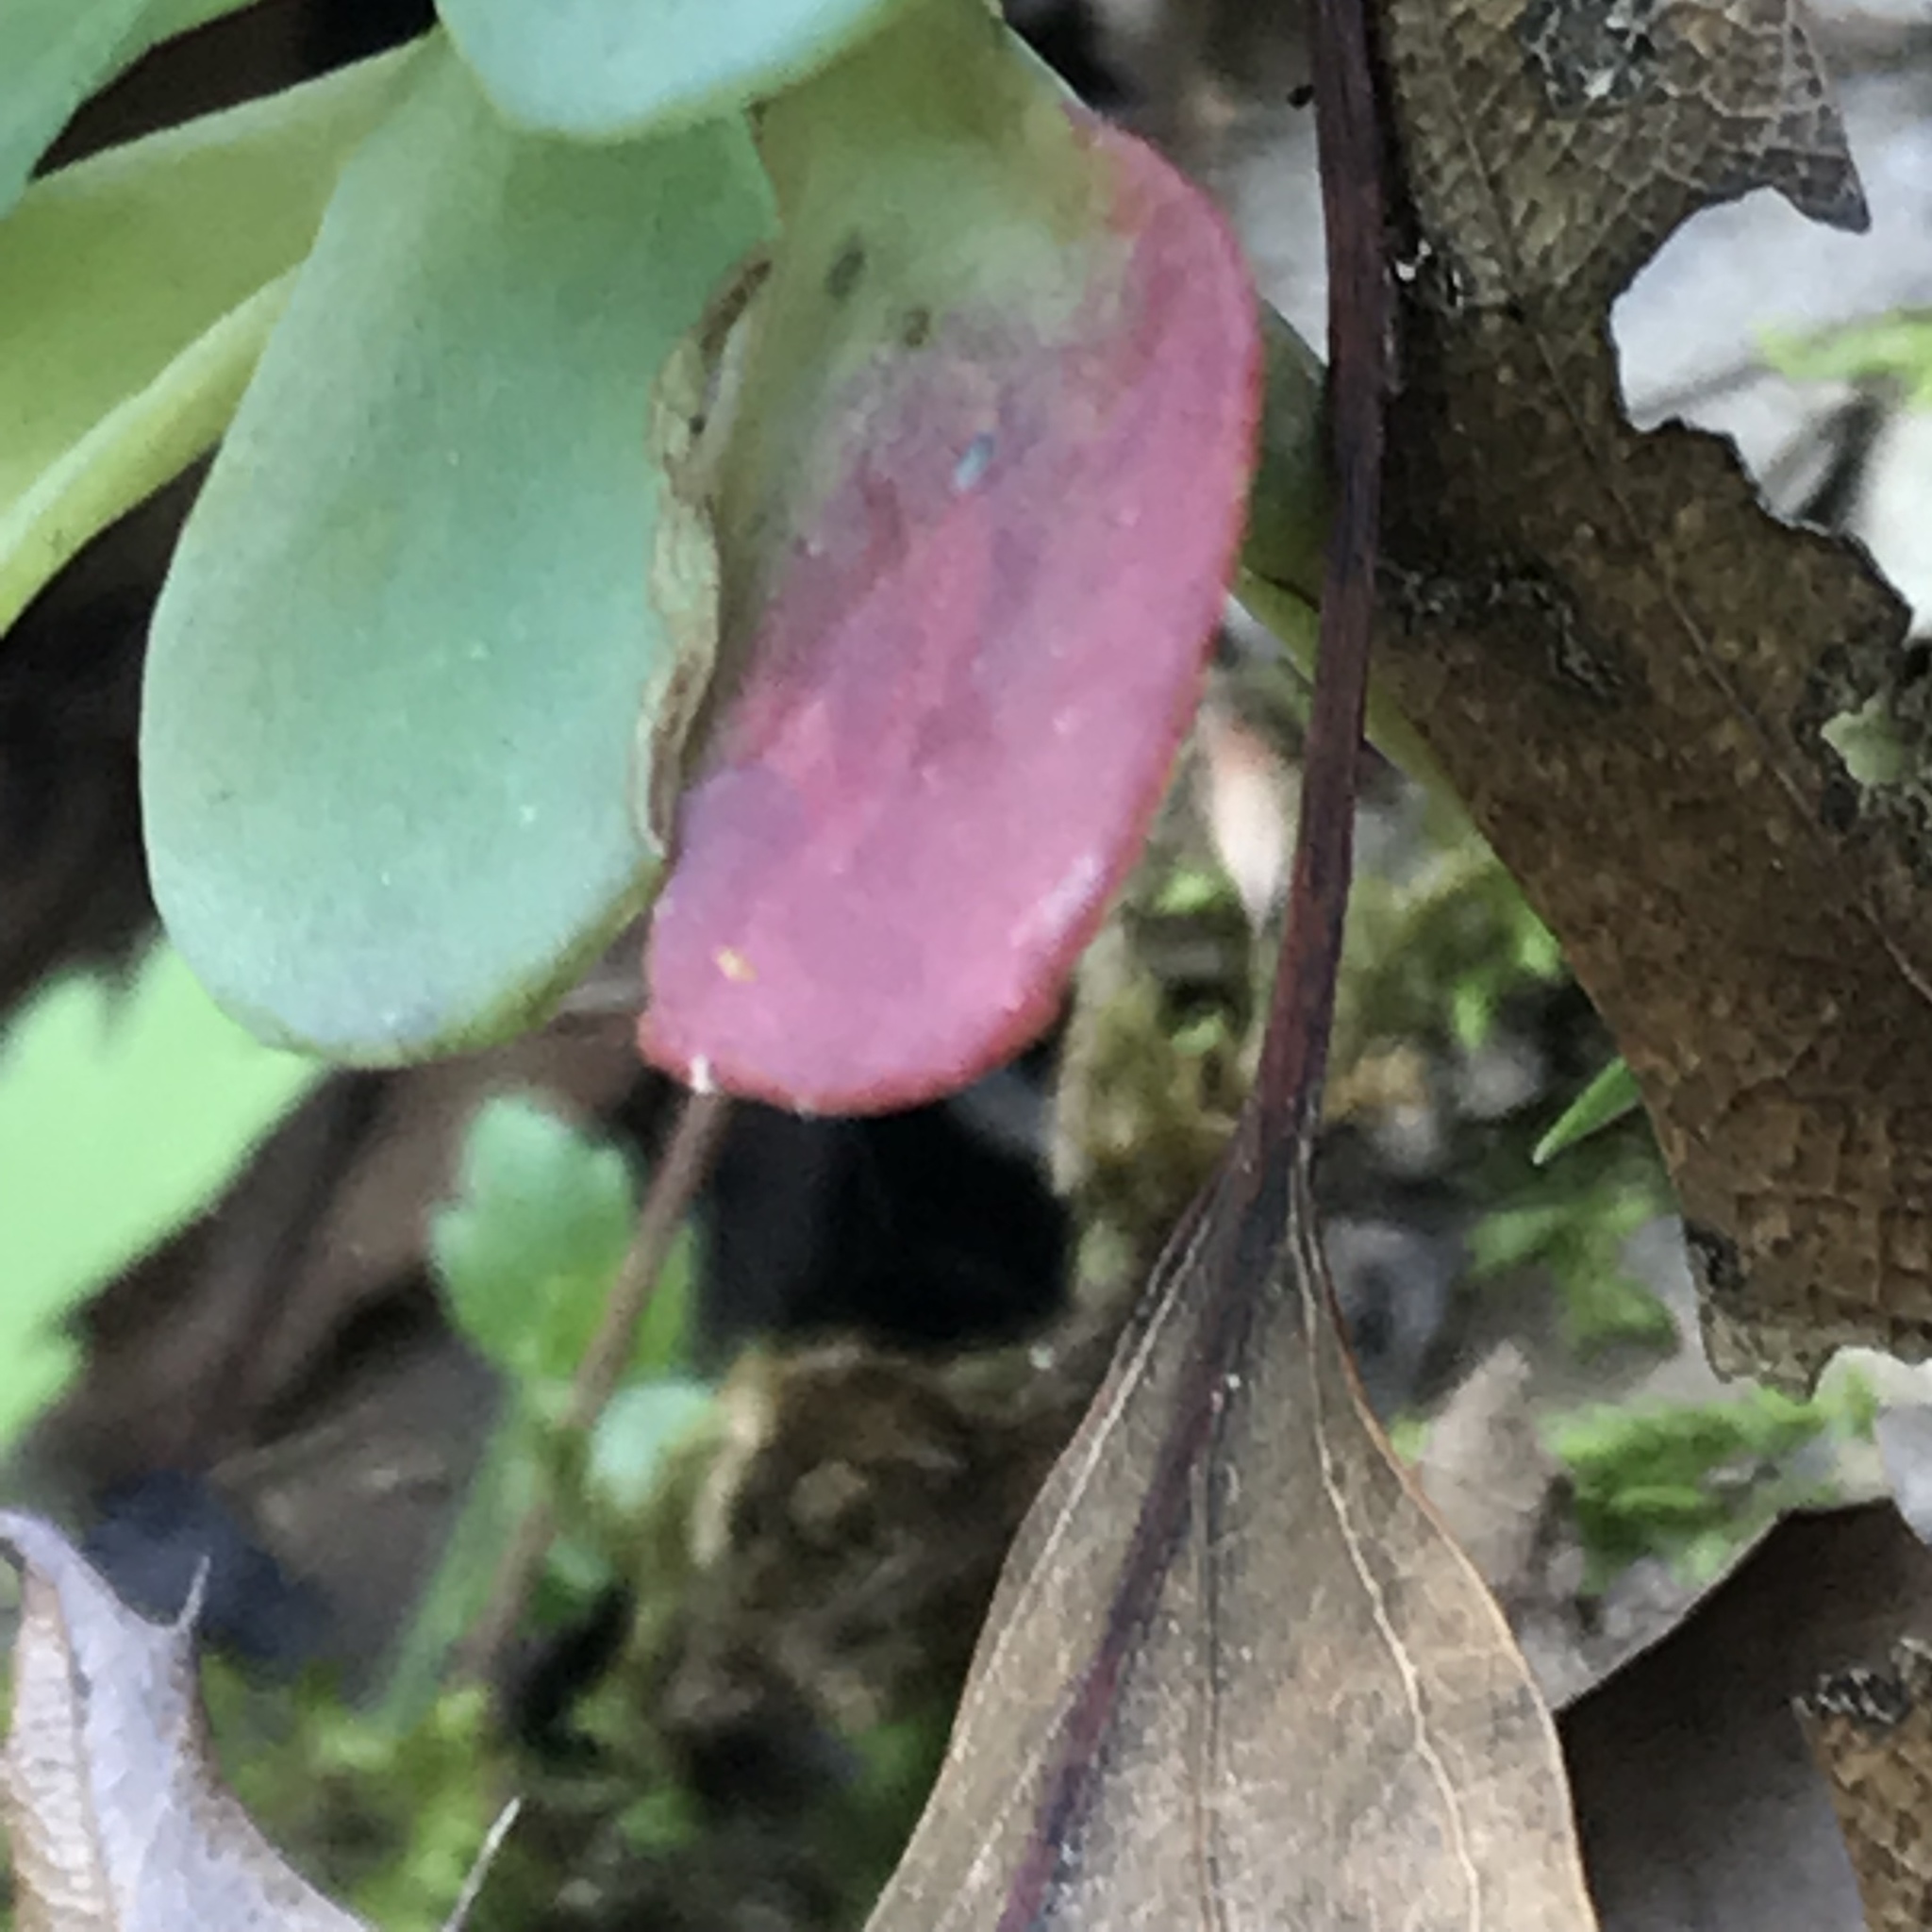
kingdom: Plantae
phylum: Tracheophyta
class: Magnoliopsida
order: Saxifragales
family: Crassulaceae
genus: Sedum
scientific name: Sedum palmeri
